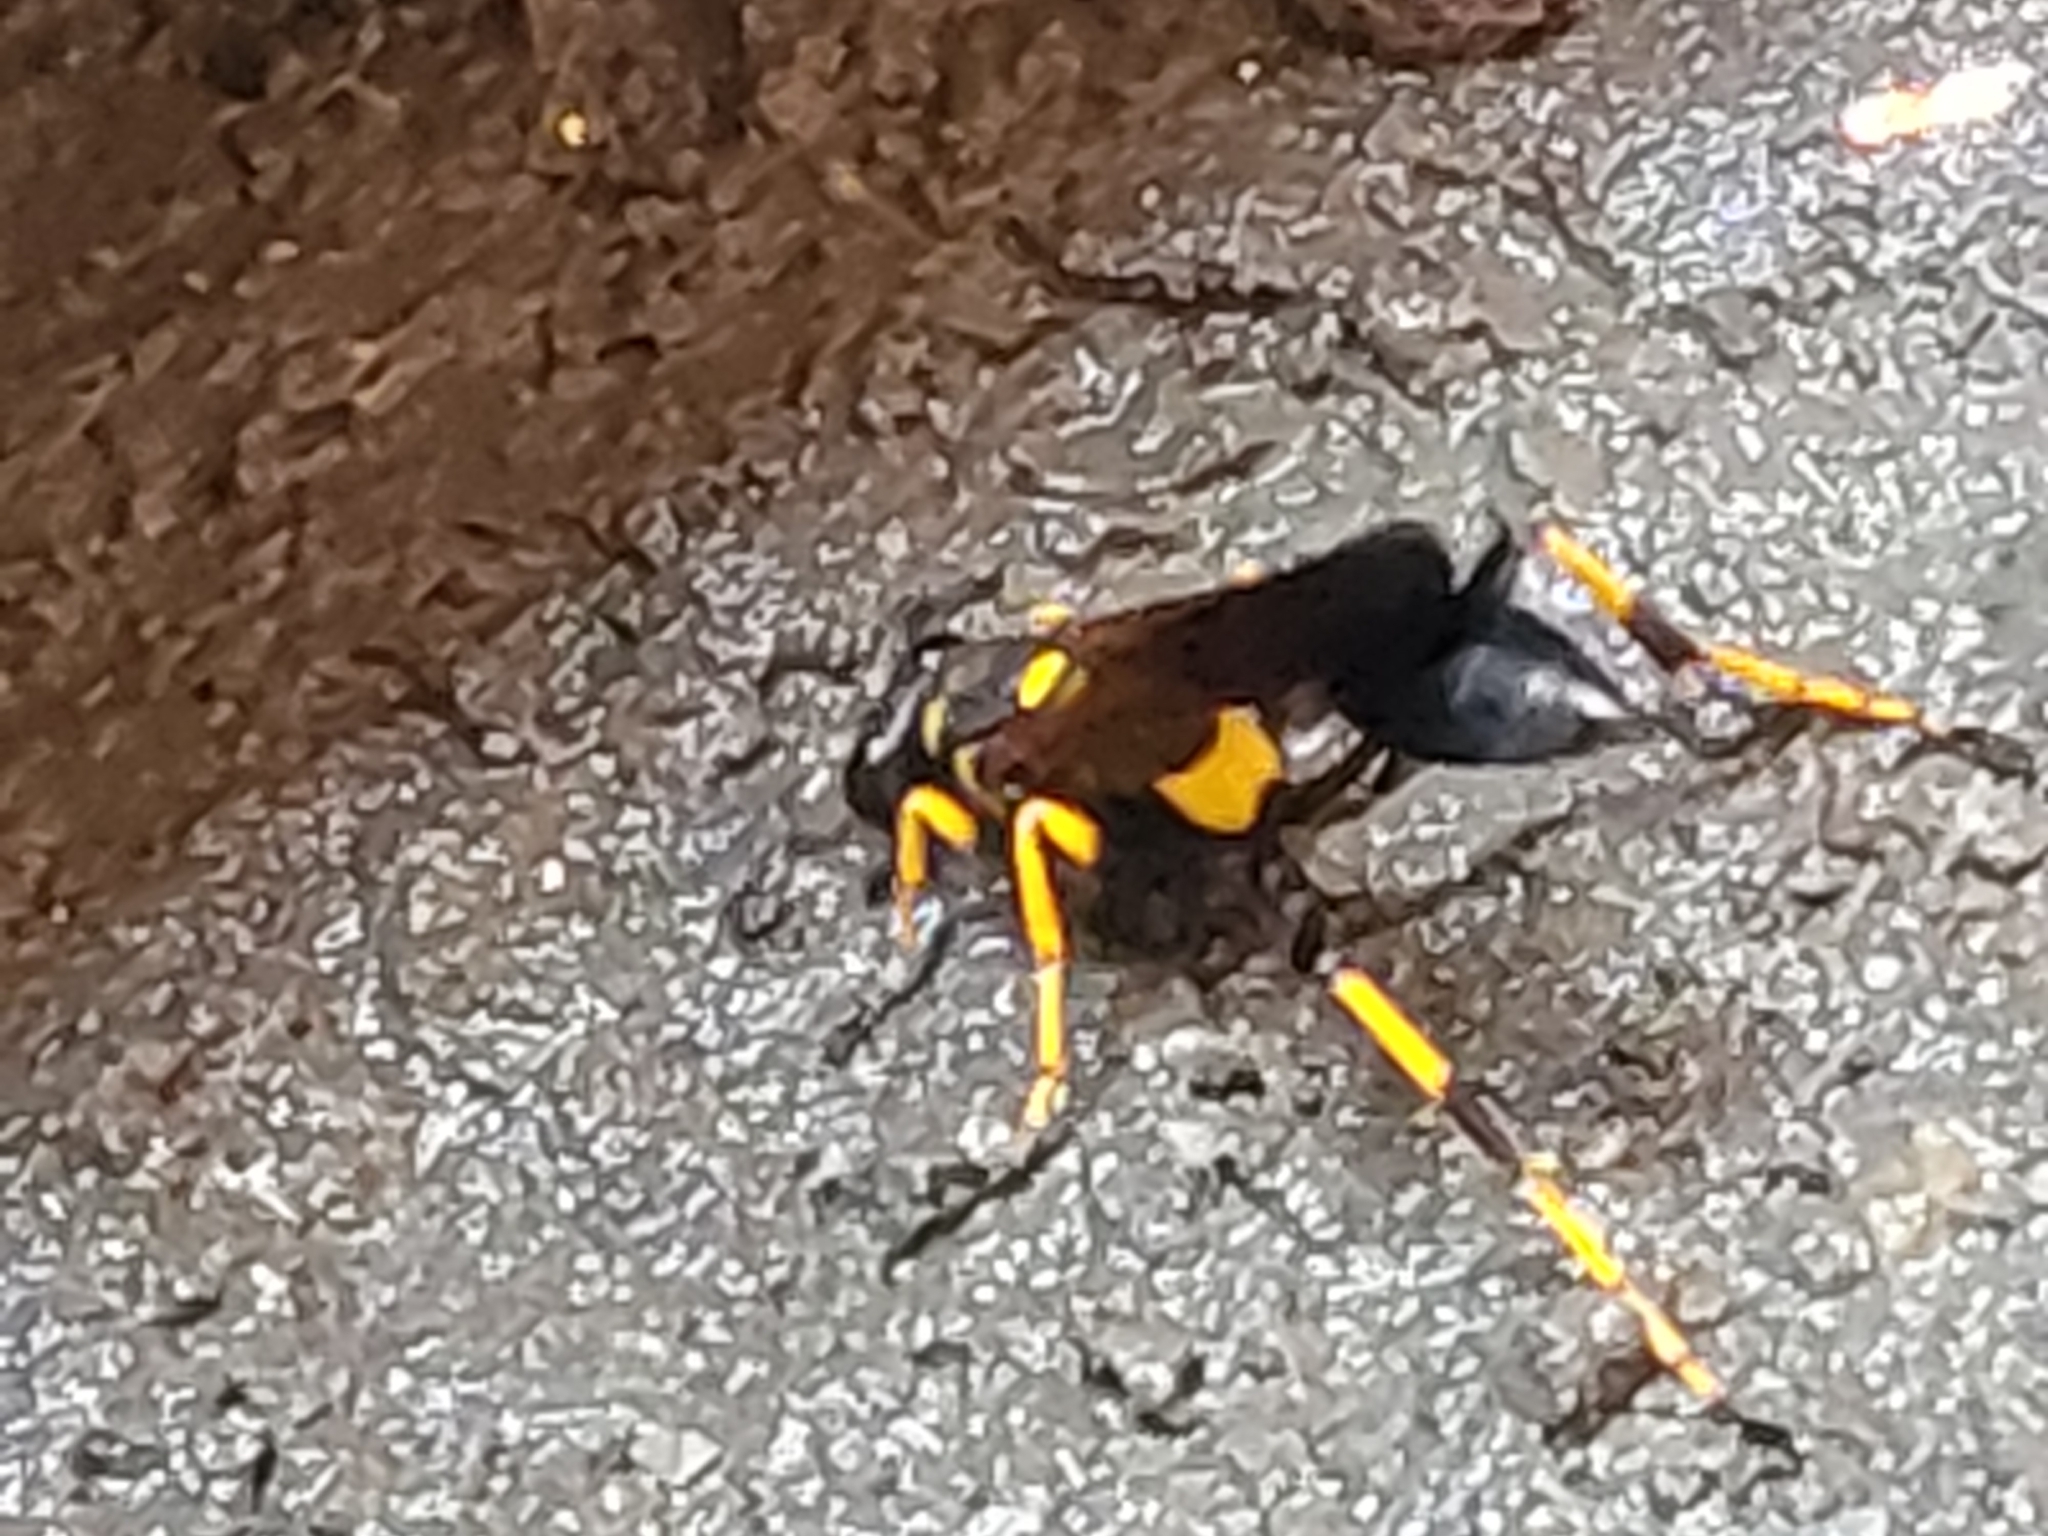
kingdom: Animalia
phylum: Arthropoda
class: Insecta
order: Hymenoptera
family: Sphecidae
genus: Sceliphron
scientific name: Sceliphron caementarium
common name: Mud dauber
